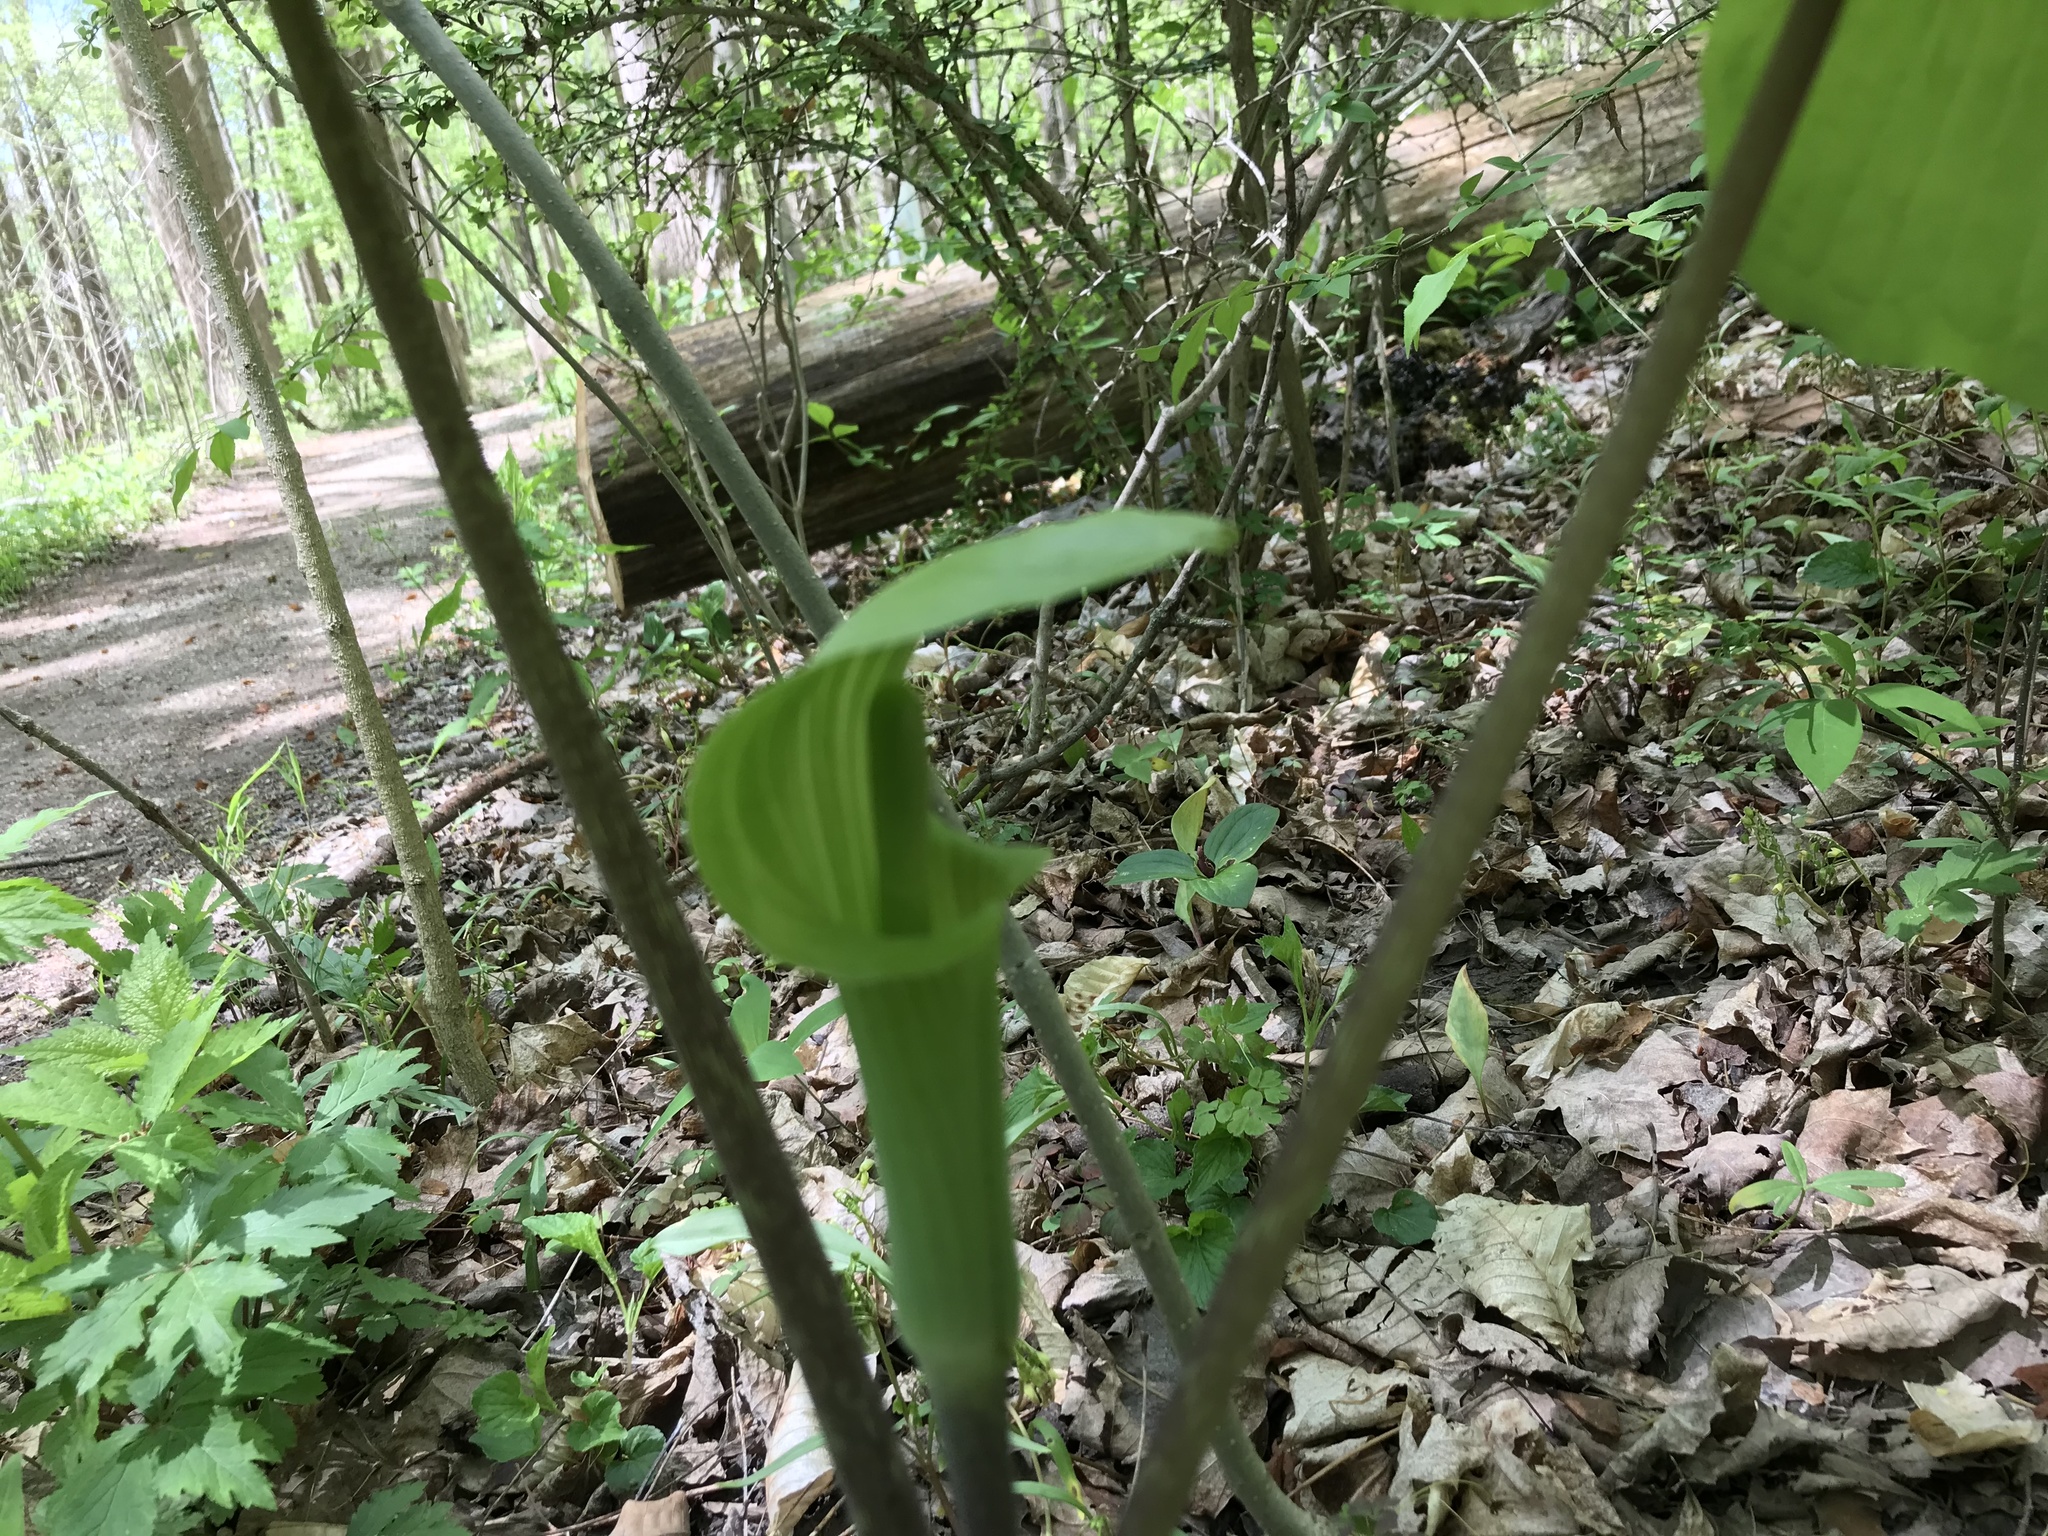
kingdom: Plantae
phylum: Tracheophyta
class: Liliopsida
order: Alismatales
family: Araceae
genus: Arisaema
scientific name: Arisaema triphyllum
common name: Jack-in-the-pulpit
